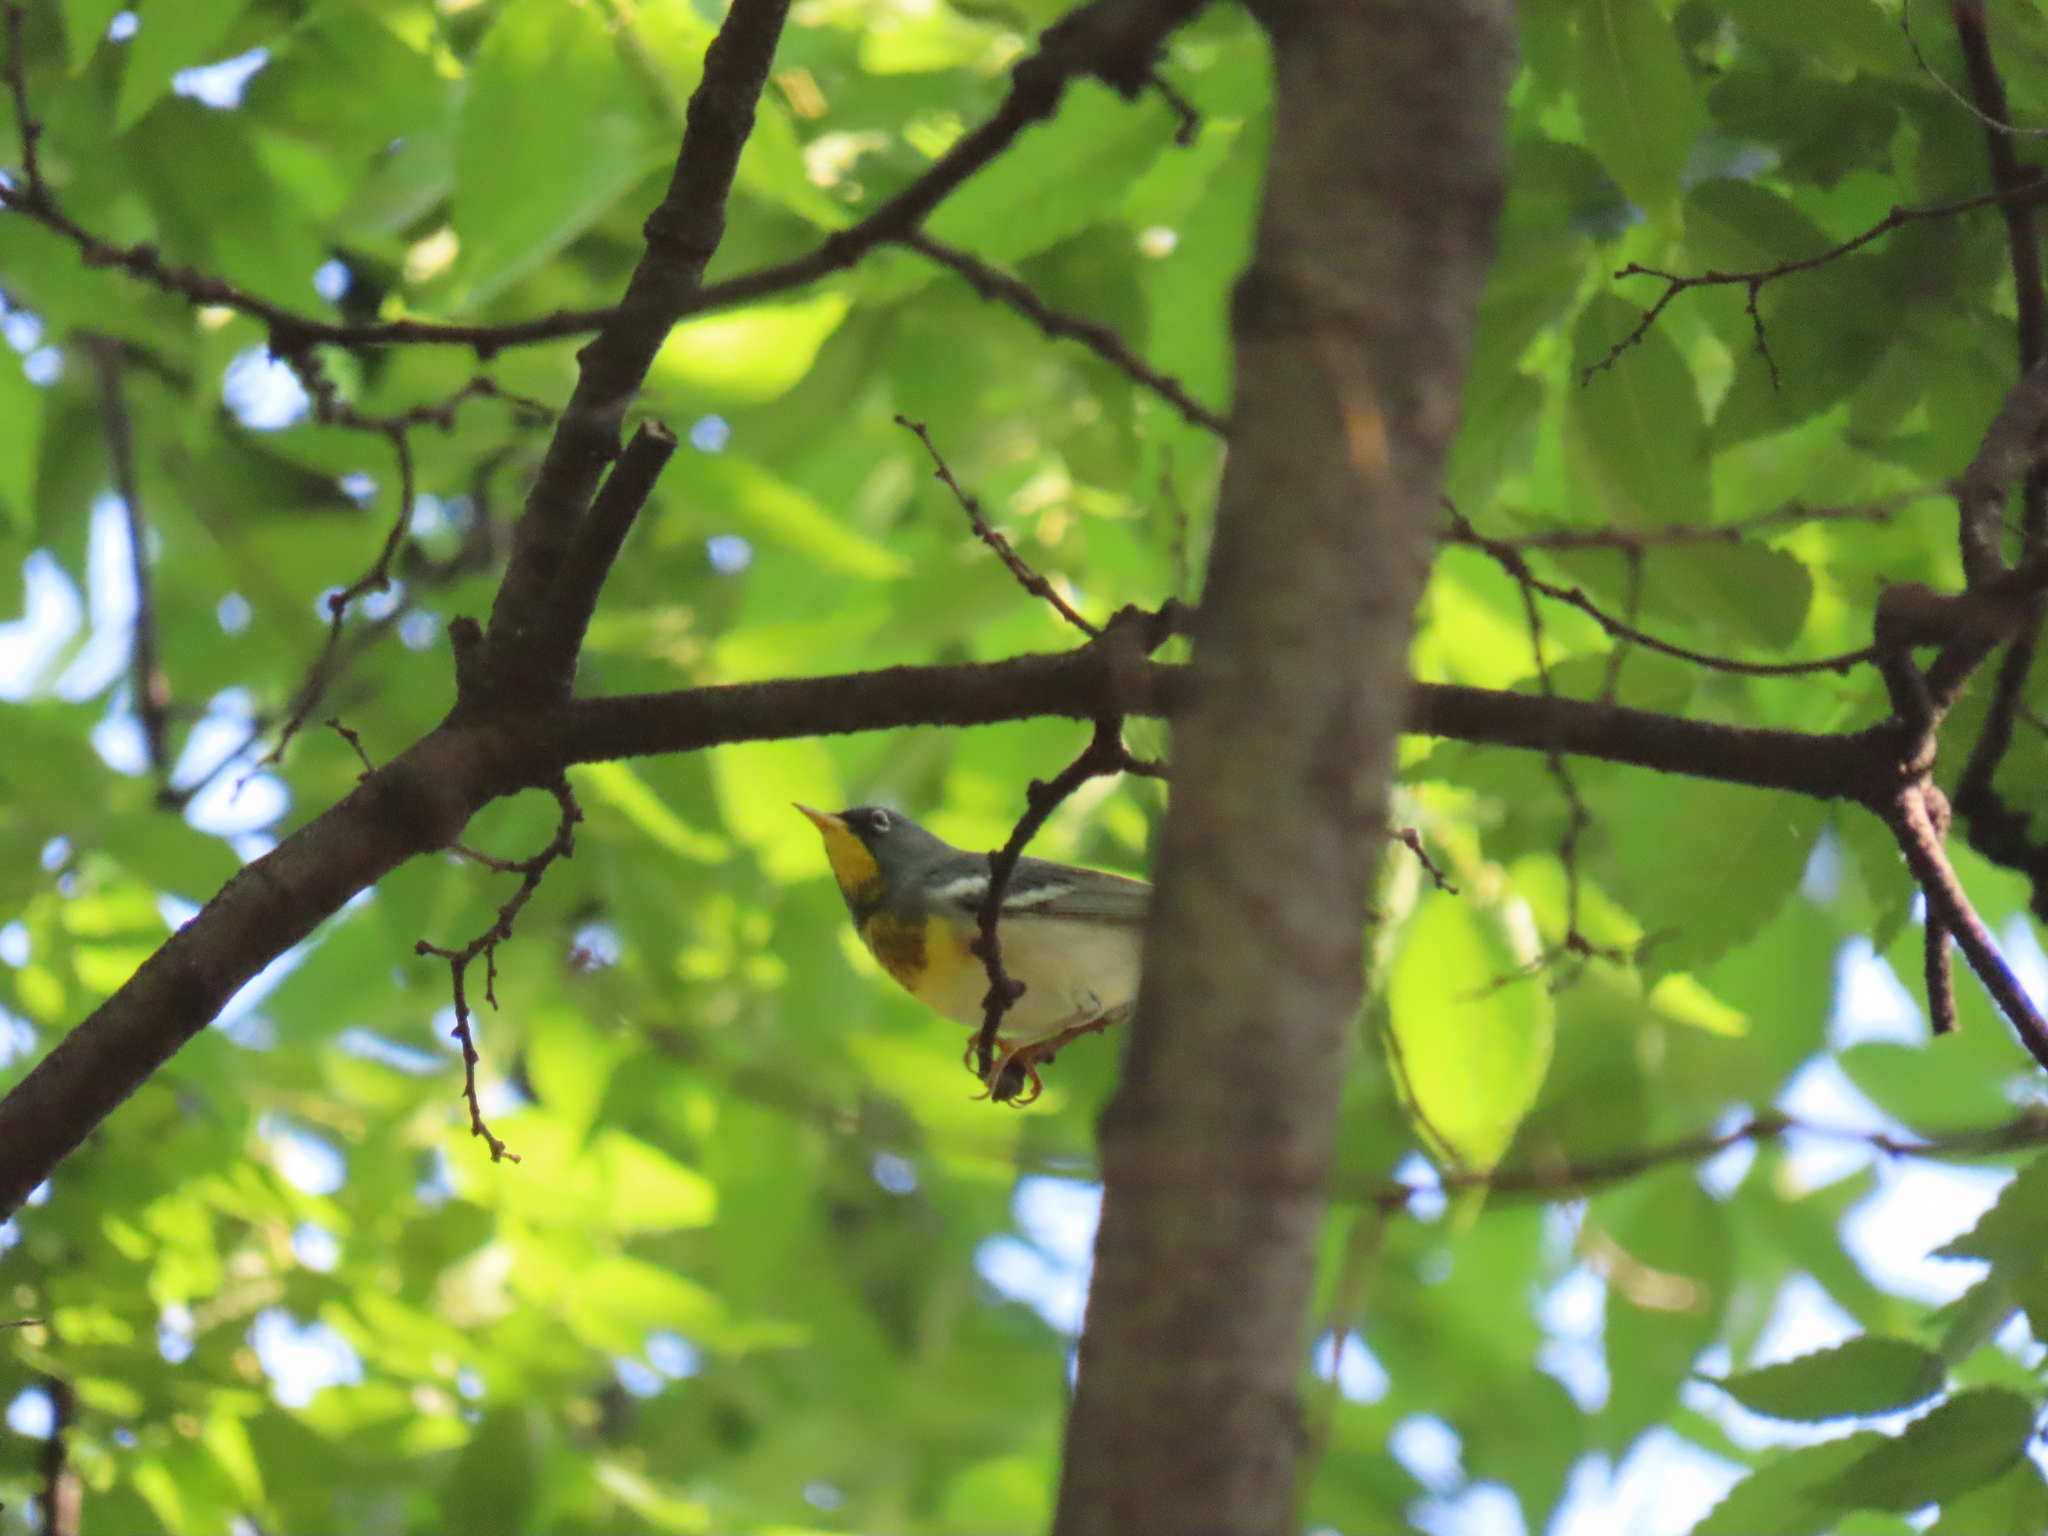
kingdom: Animalia
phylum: Chordata
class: Aves
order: Passeriformes
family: Parulidae
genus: Setophaga
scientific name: Setophaga americana
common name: Northern parula
